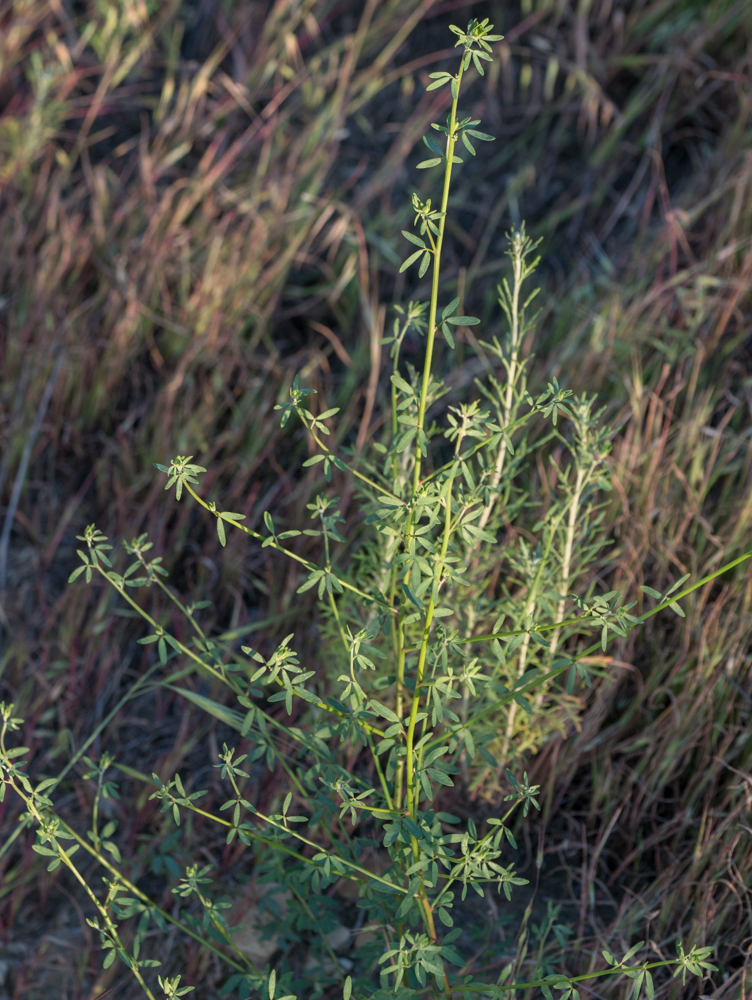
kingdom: Plantae
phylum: Tracheophyta
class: Magnoliopsida
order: Fabales
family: Fabaceae
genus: Acmispon
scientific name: Acmispon glaber
